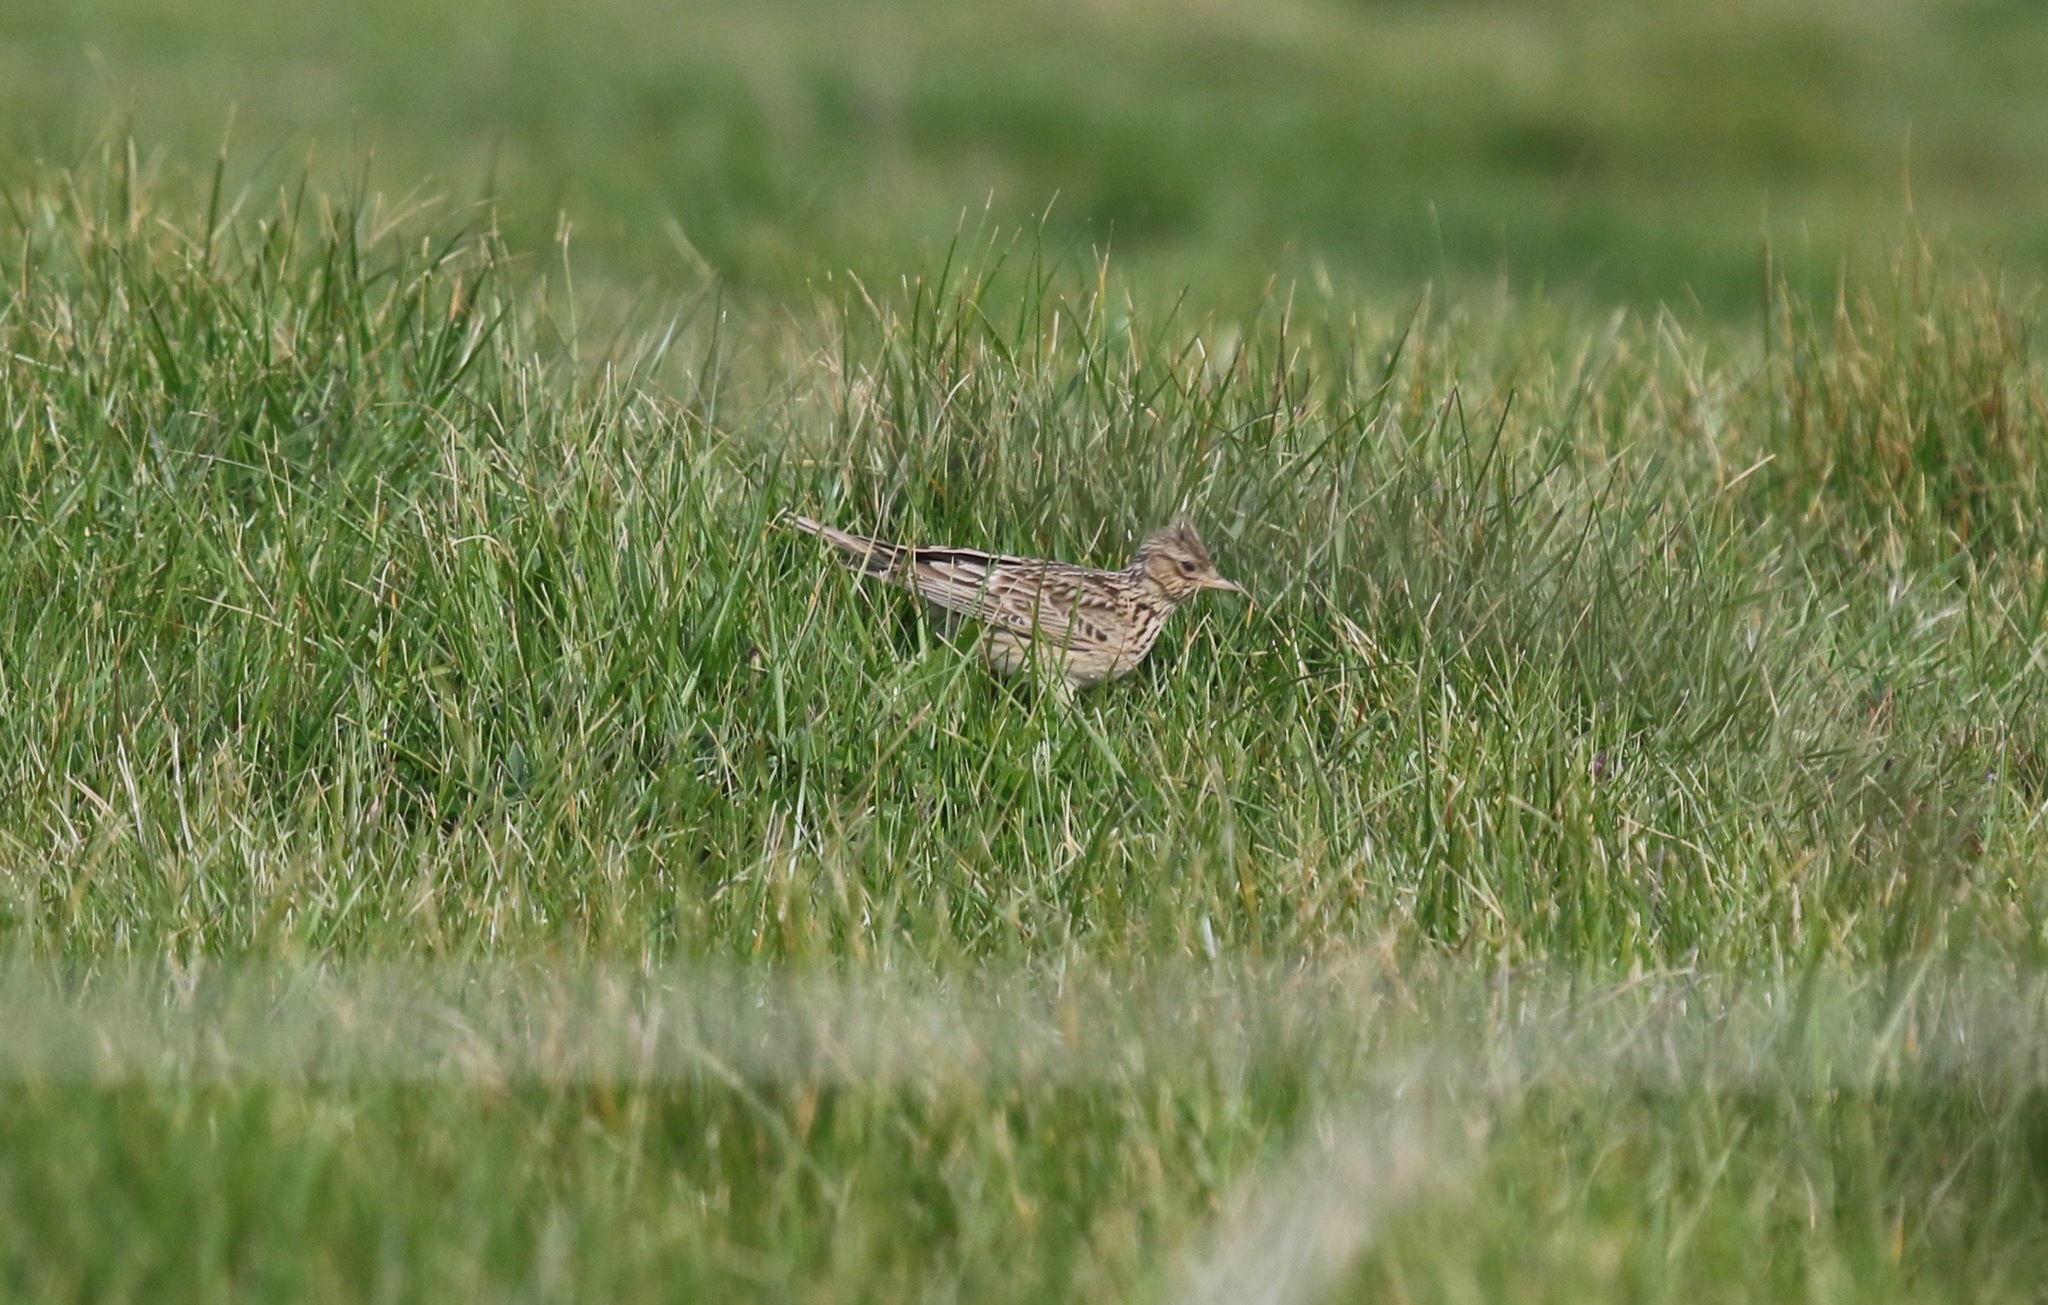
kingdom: Animalia
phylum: Chordata
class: Aves
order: Passeriformes
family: Alaudidae
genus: Alauda
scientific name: Alauda arvensis
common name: Eurasian skylark
